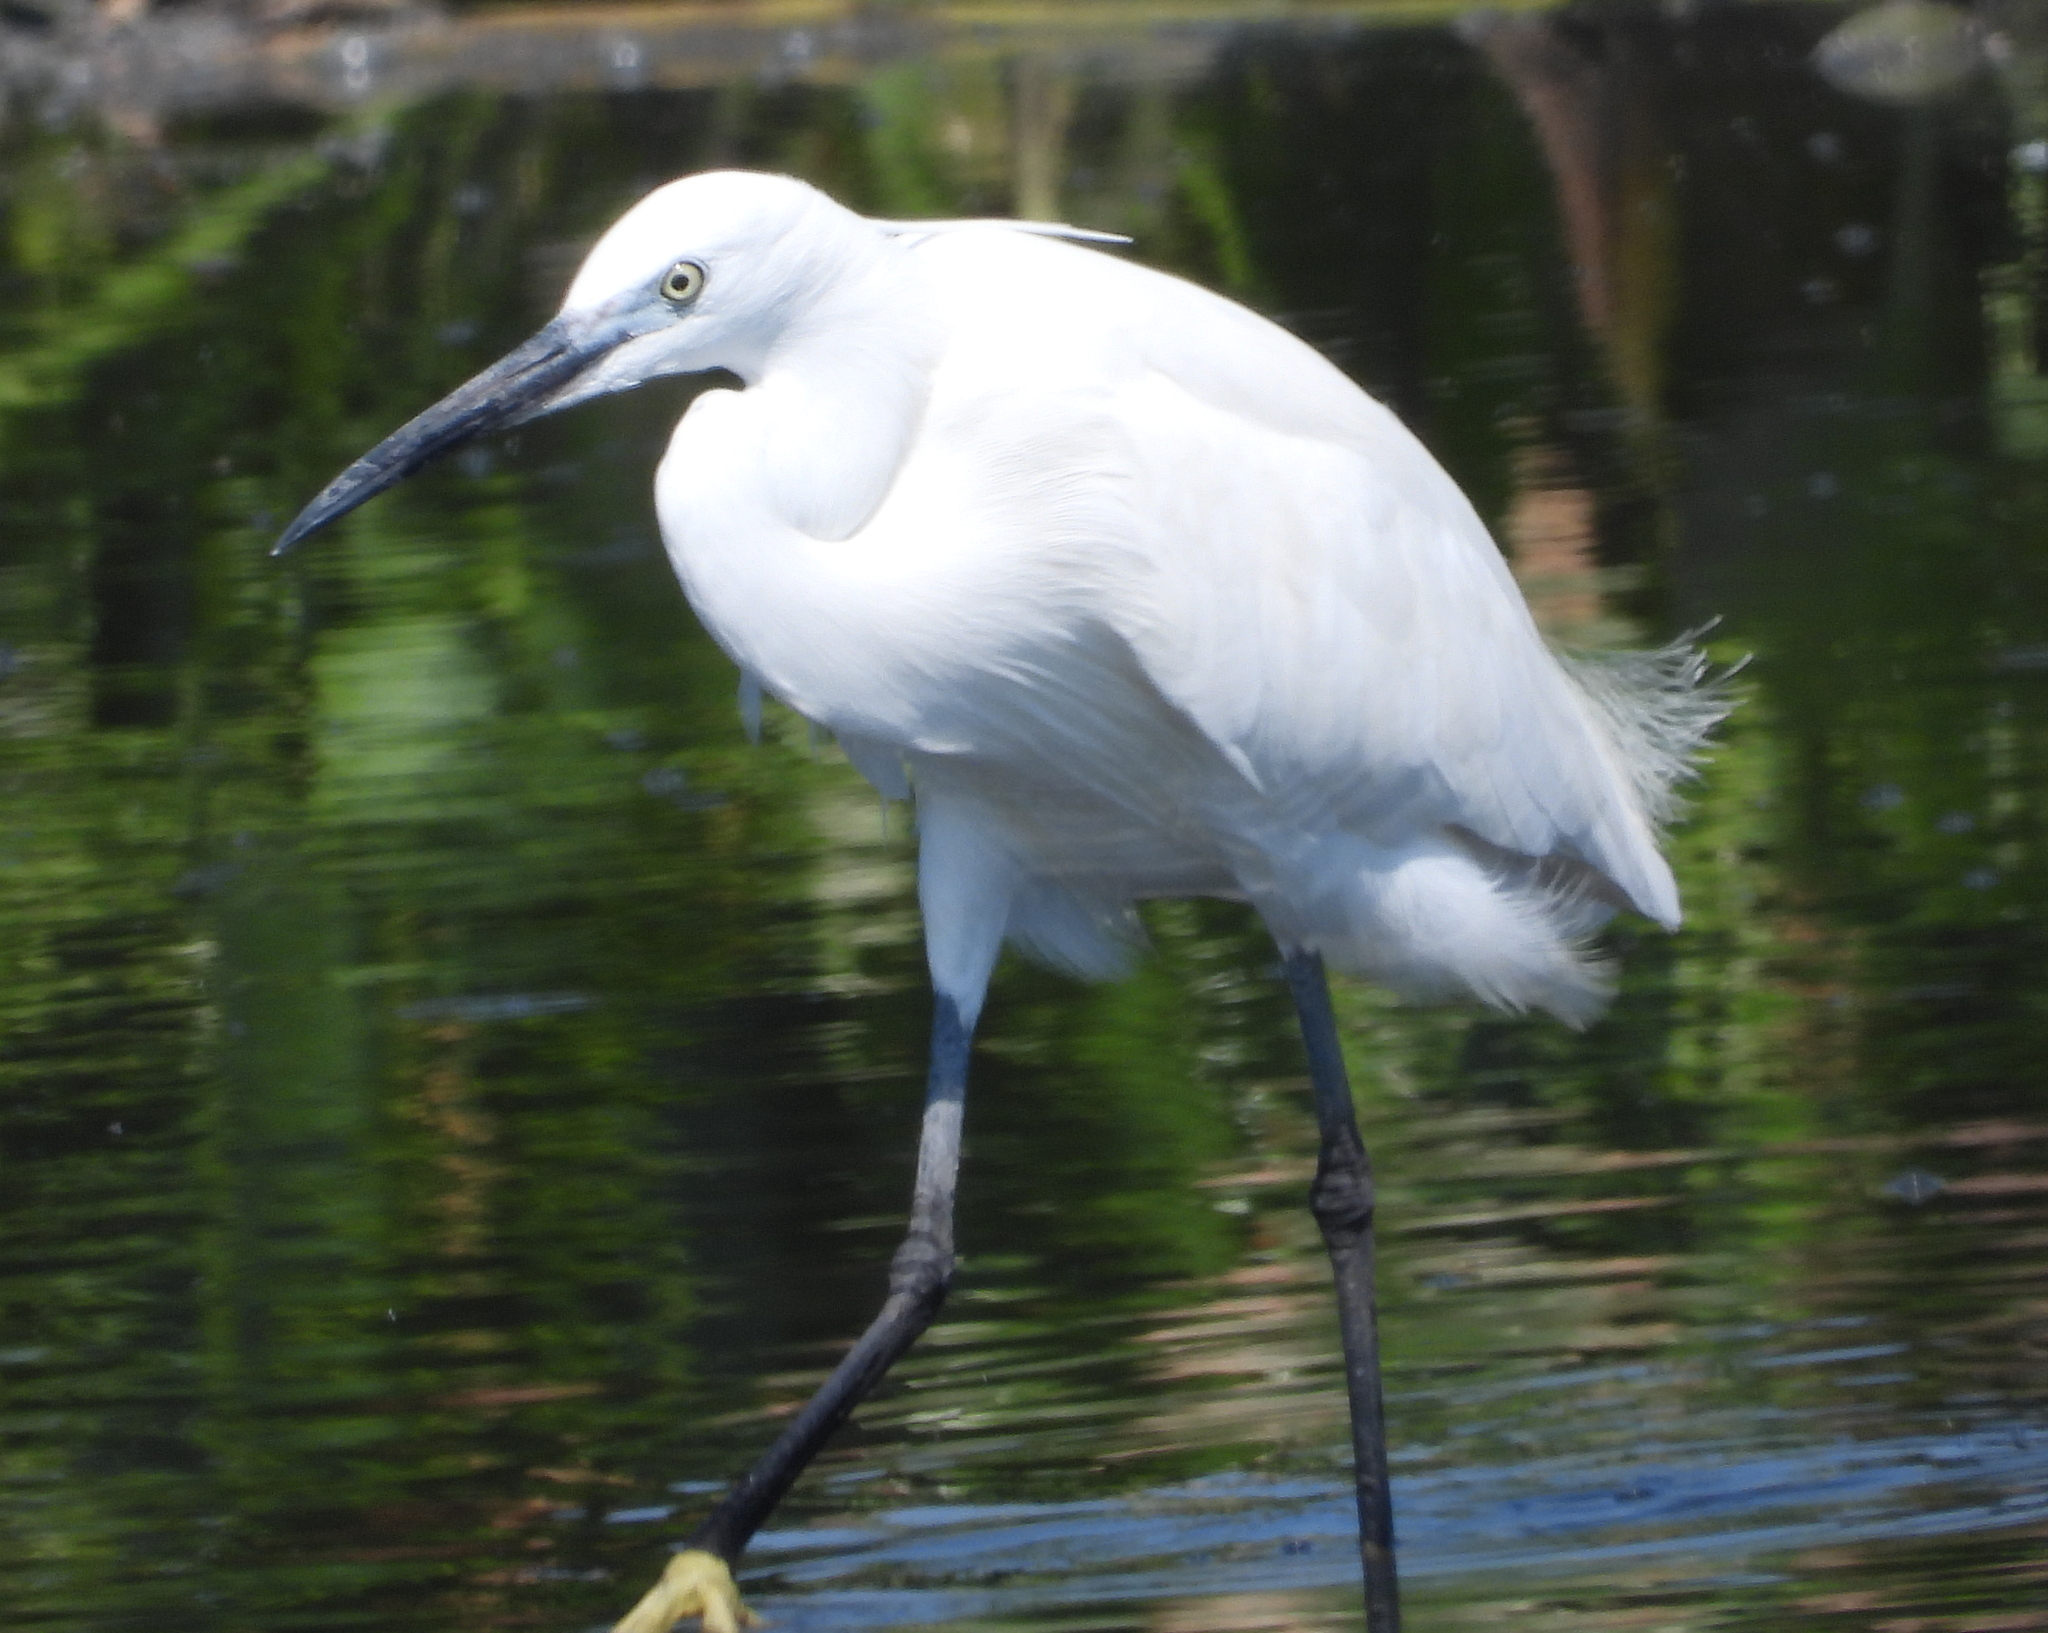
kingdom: Animalia
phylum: Chordata
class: Aves
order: Pelecaniformes
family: Ardeidae
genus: Egretta
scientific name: Egretta garzetta
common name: Little egret
